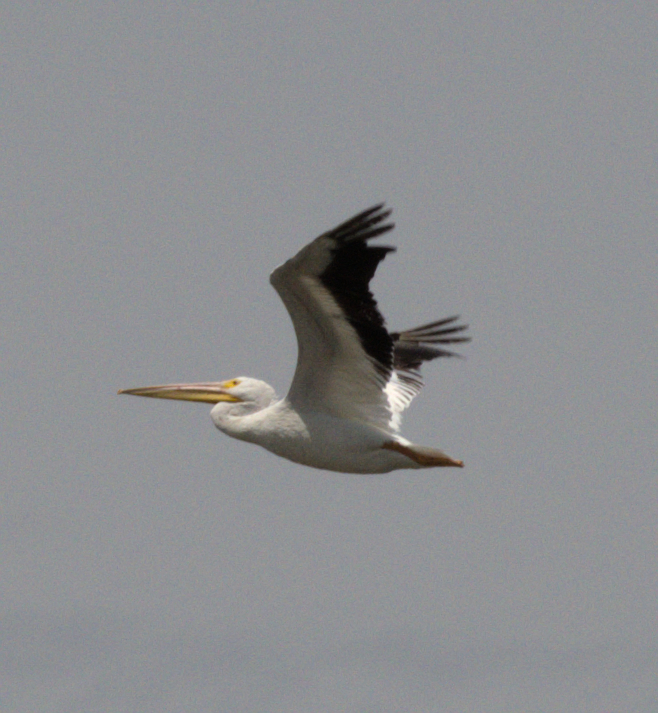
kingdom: Animalia
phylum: Chordata
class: Aves
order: Pelecaniformes
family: Pelecanidae
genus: Pelecanus
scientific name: Pelecanus erythrorhynchos
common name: American white pelican
